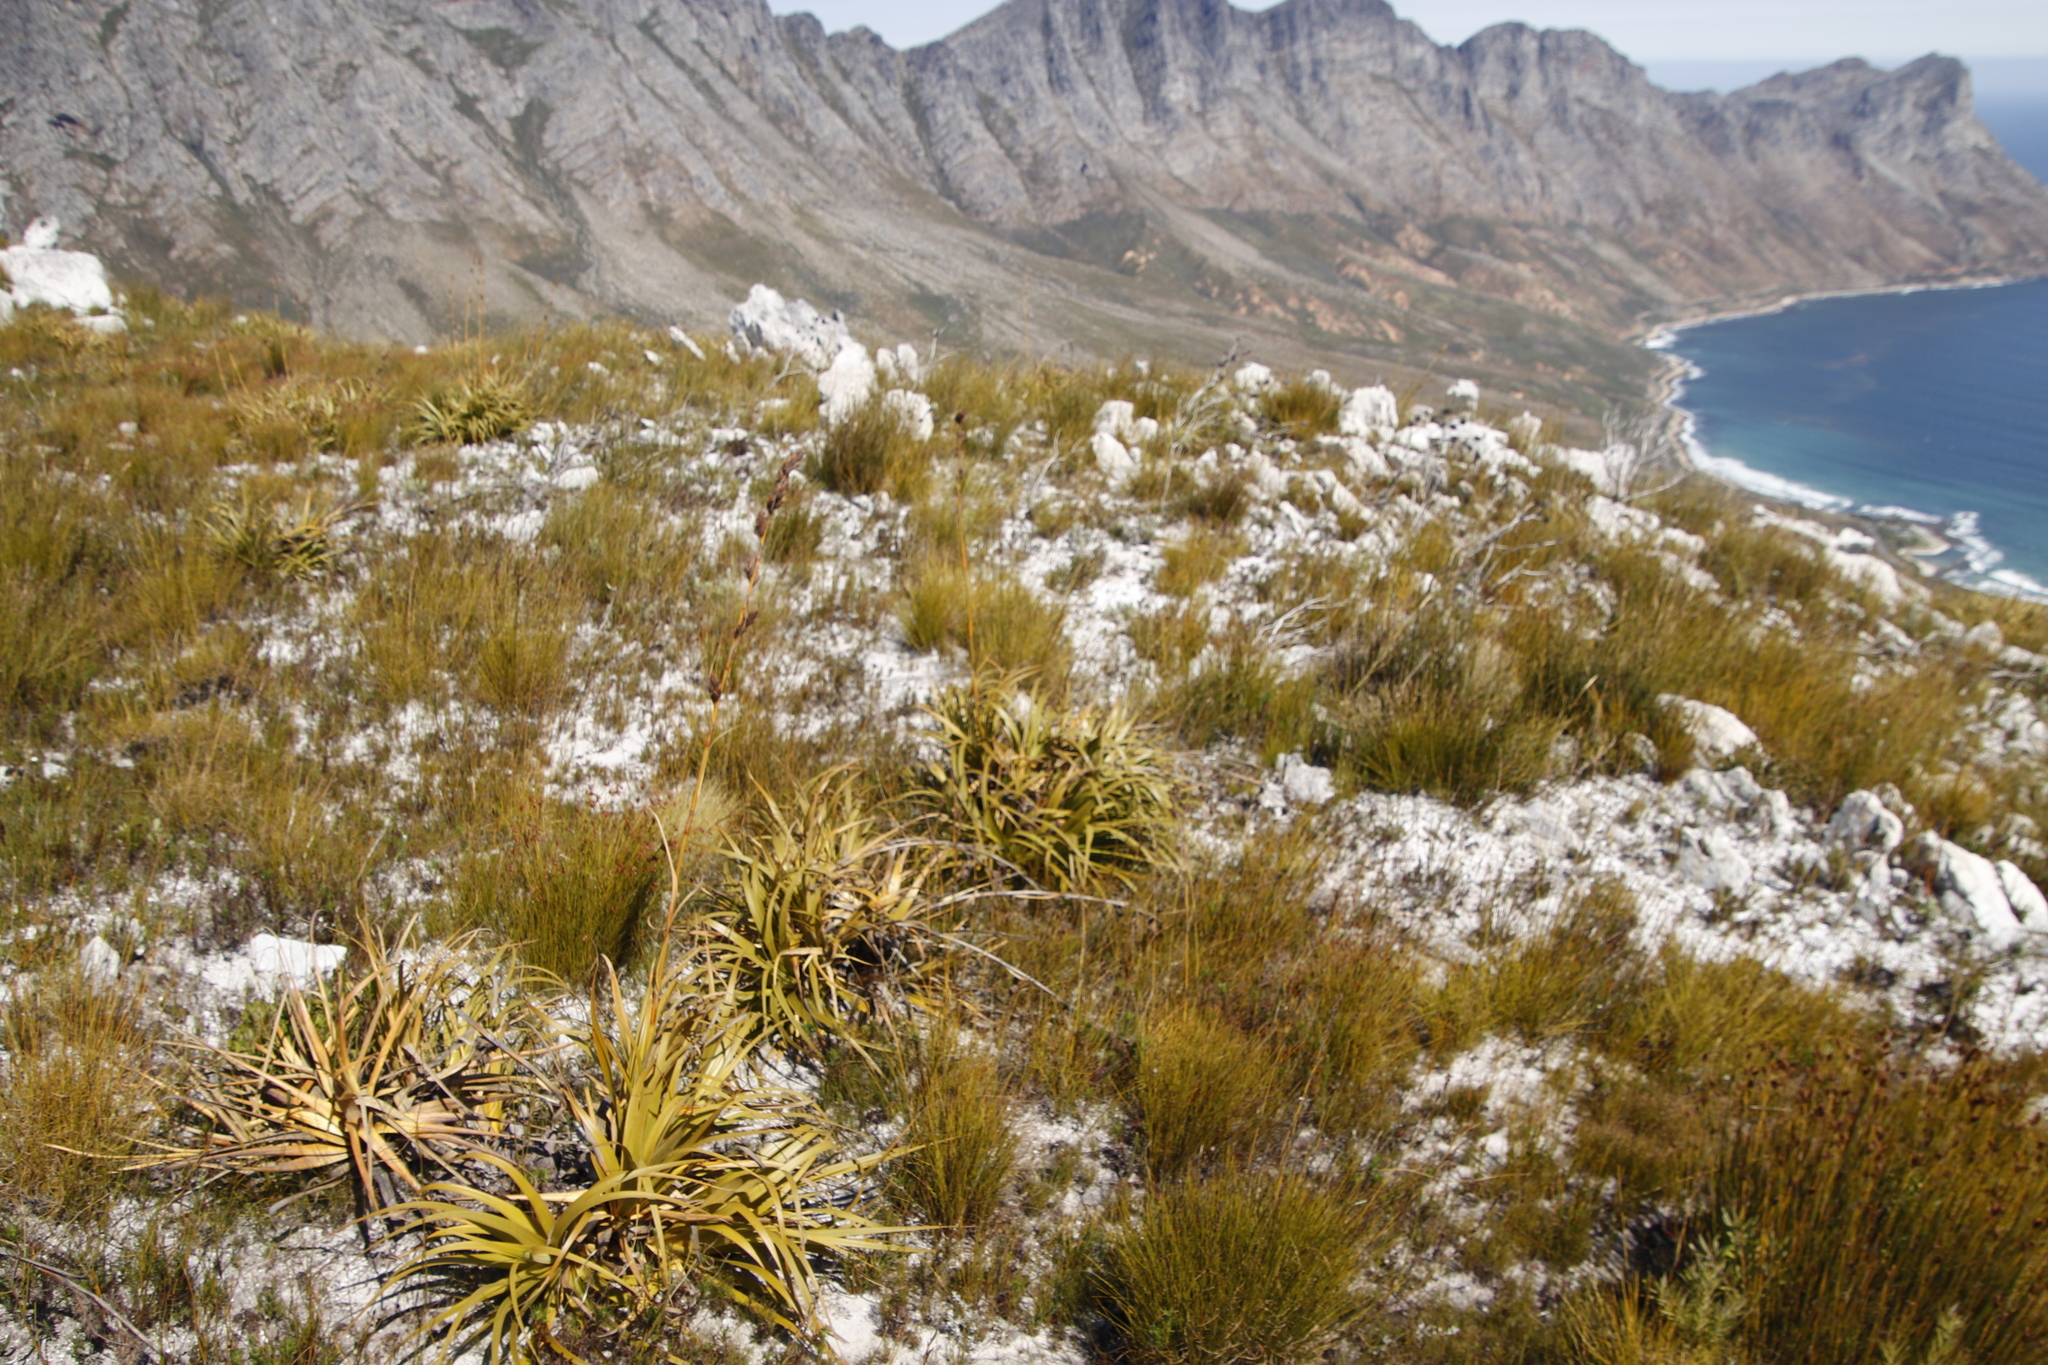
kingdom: Plantae
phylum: Tracheophyta
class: Liliopsida
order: Poales
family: Cyperaceae
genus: Tetraria
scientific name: Tetraria thermalis
